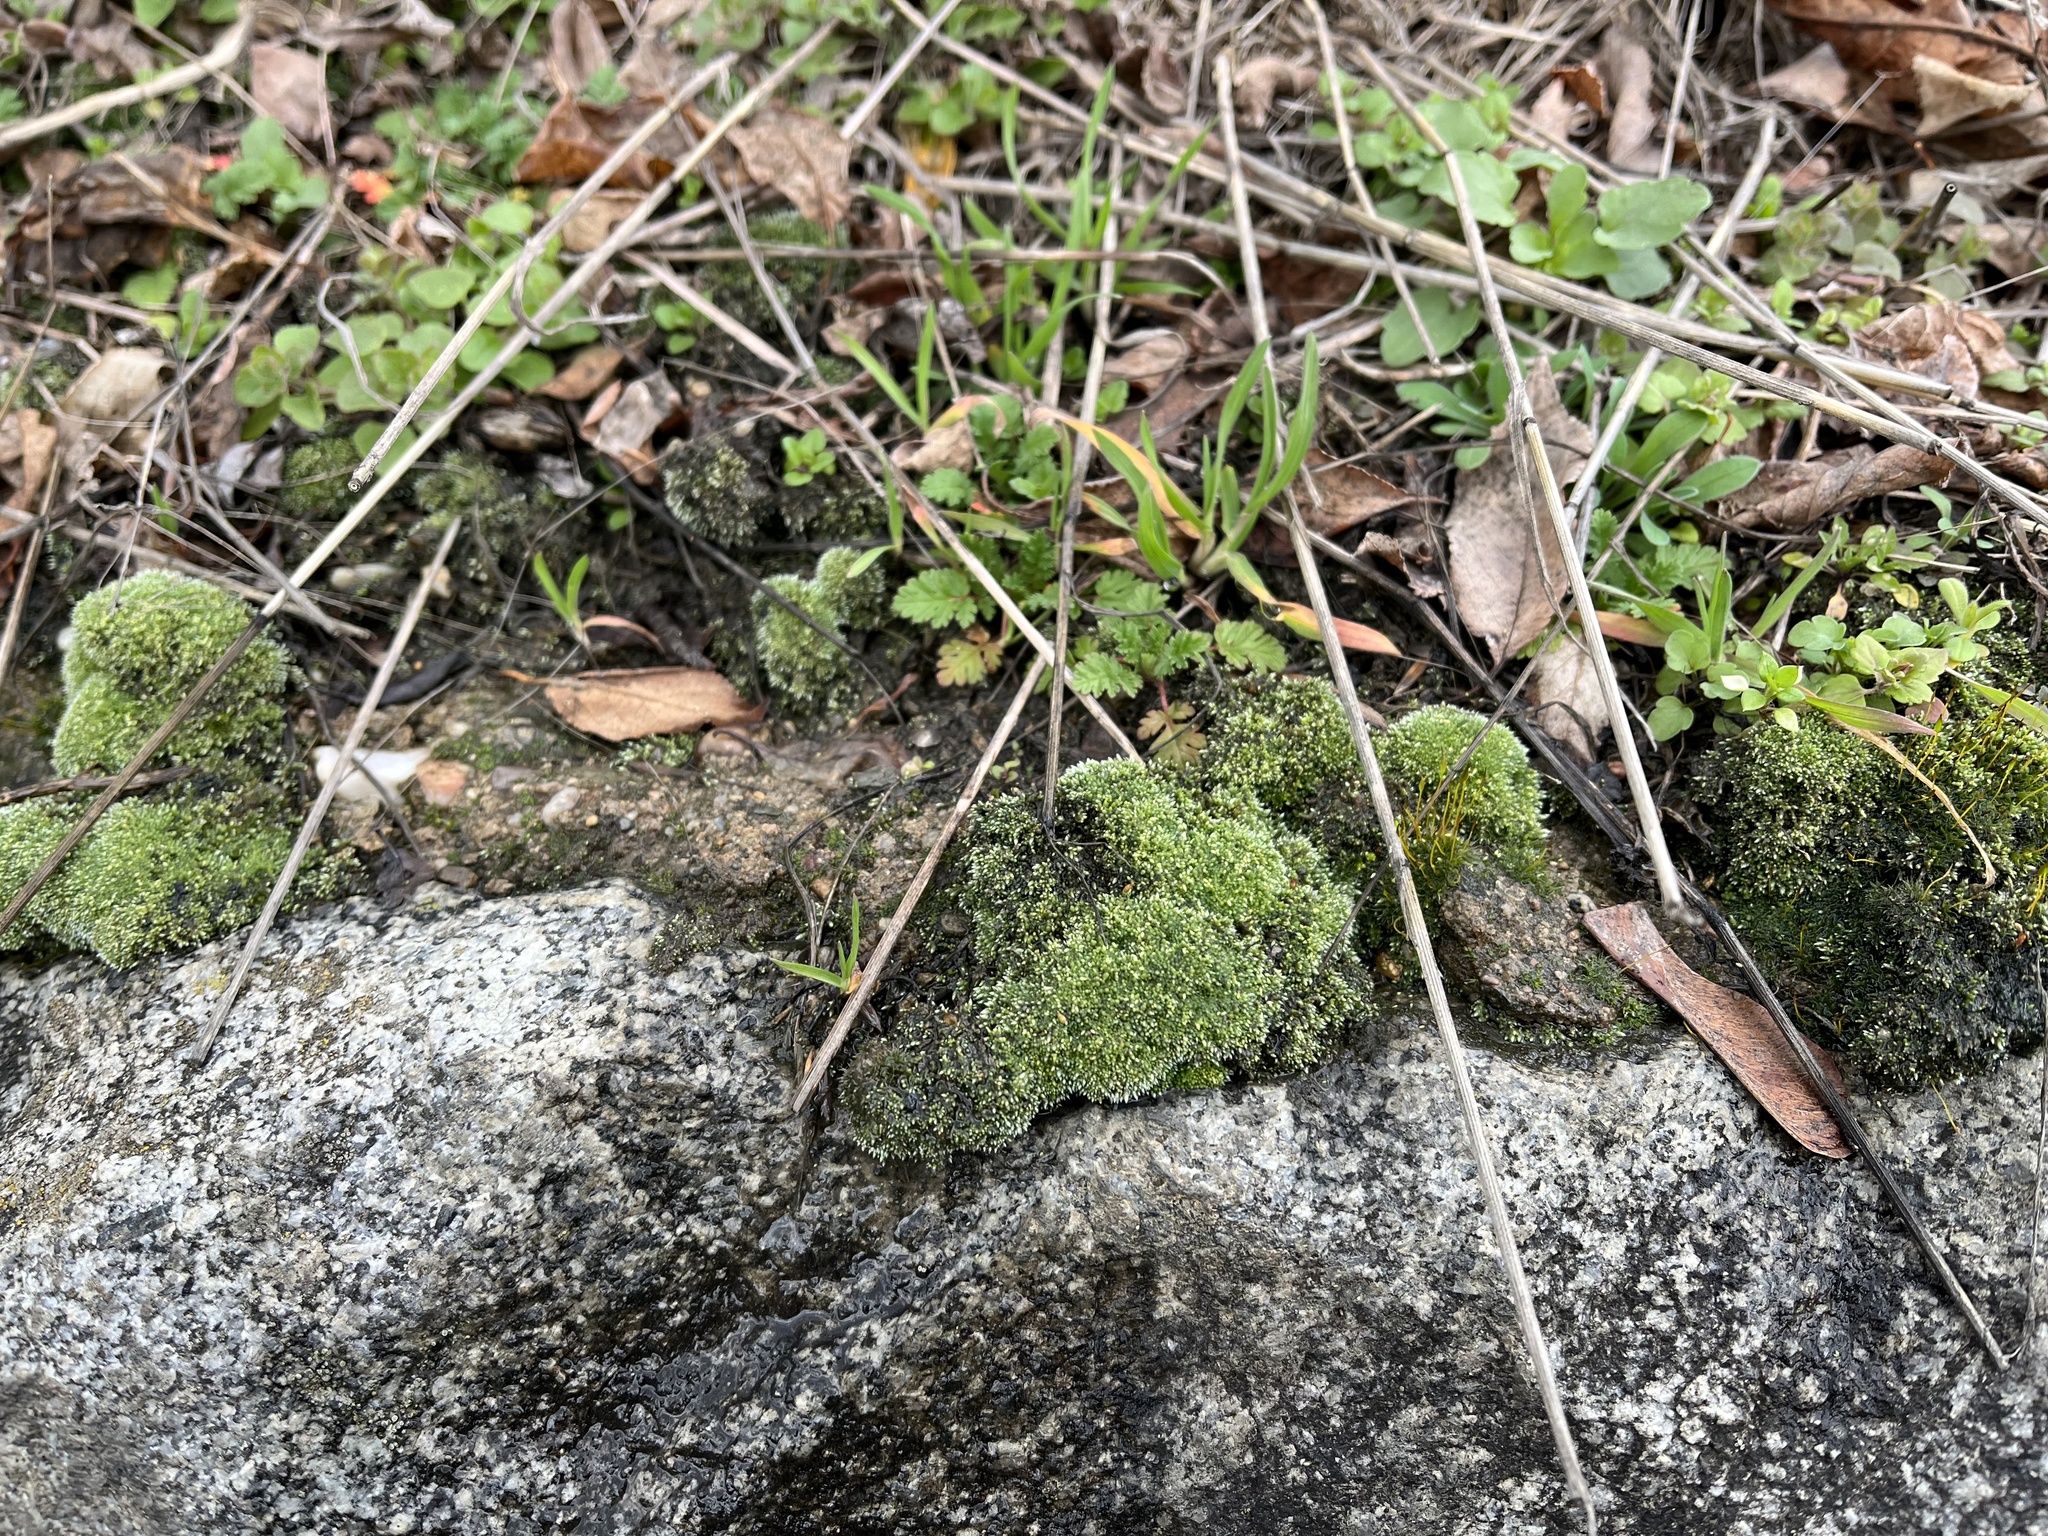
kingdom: Plantae
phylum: Bryophyta
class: Bryopsida
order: Bryales
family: Bryaceae
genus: Bryum
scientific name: Bryum argenteum
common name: Silver-moss
